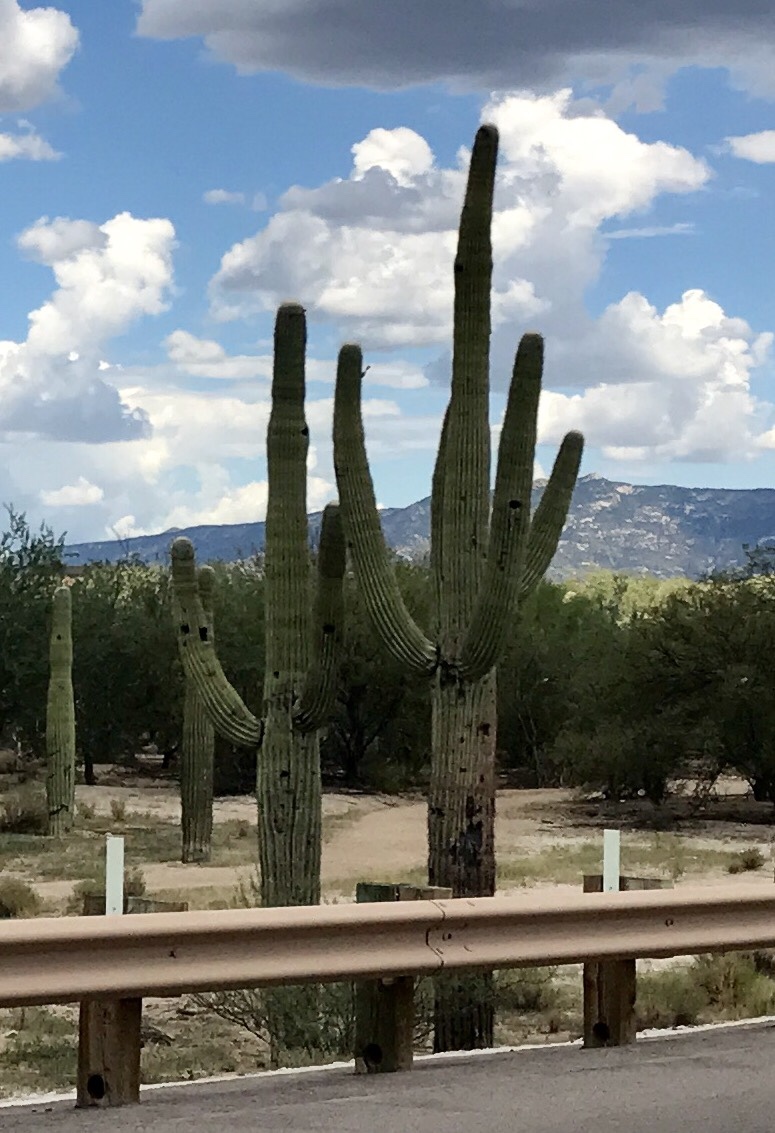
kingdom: Plantae
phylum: Tracheophyta
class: Magnoliopsida
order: Caryophyllales
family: Cactaceae
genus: Carnegiea
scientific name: Carnegiea gigantea
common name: Saguaro
